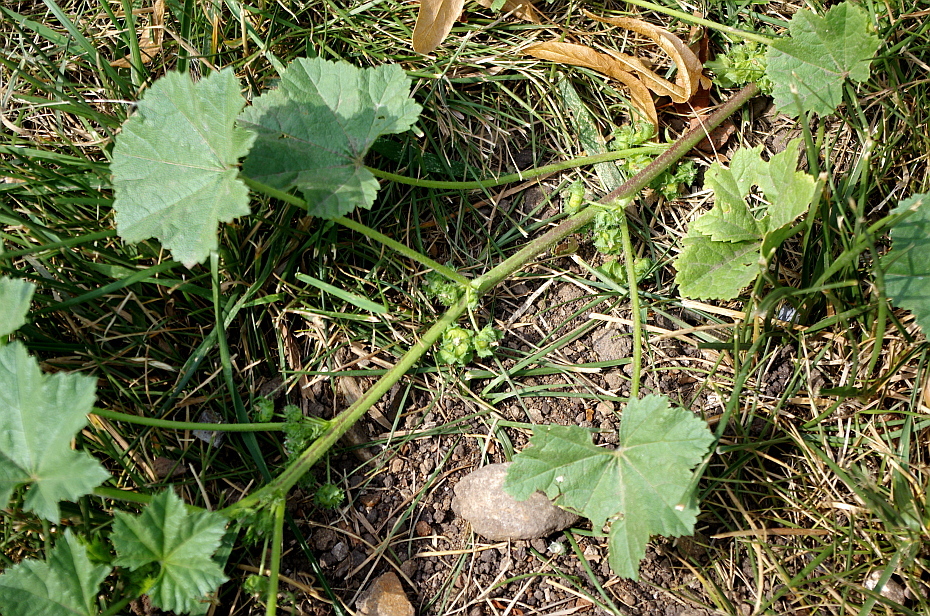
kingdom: Plantae
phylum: Tracheophyta
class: Magnoliopsida
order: Malvales
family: Malvaceae
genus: Malva
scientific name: Malva pusilla
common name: Small mallow
